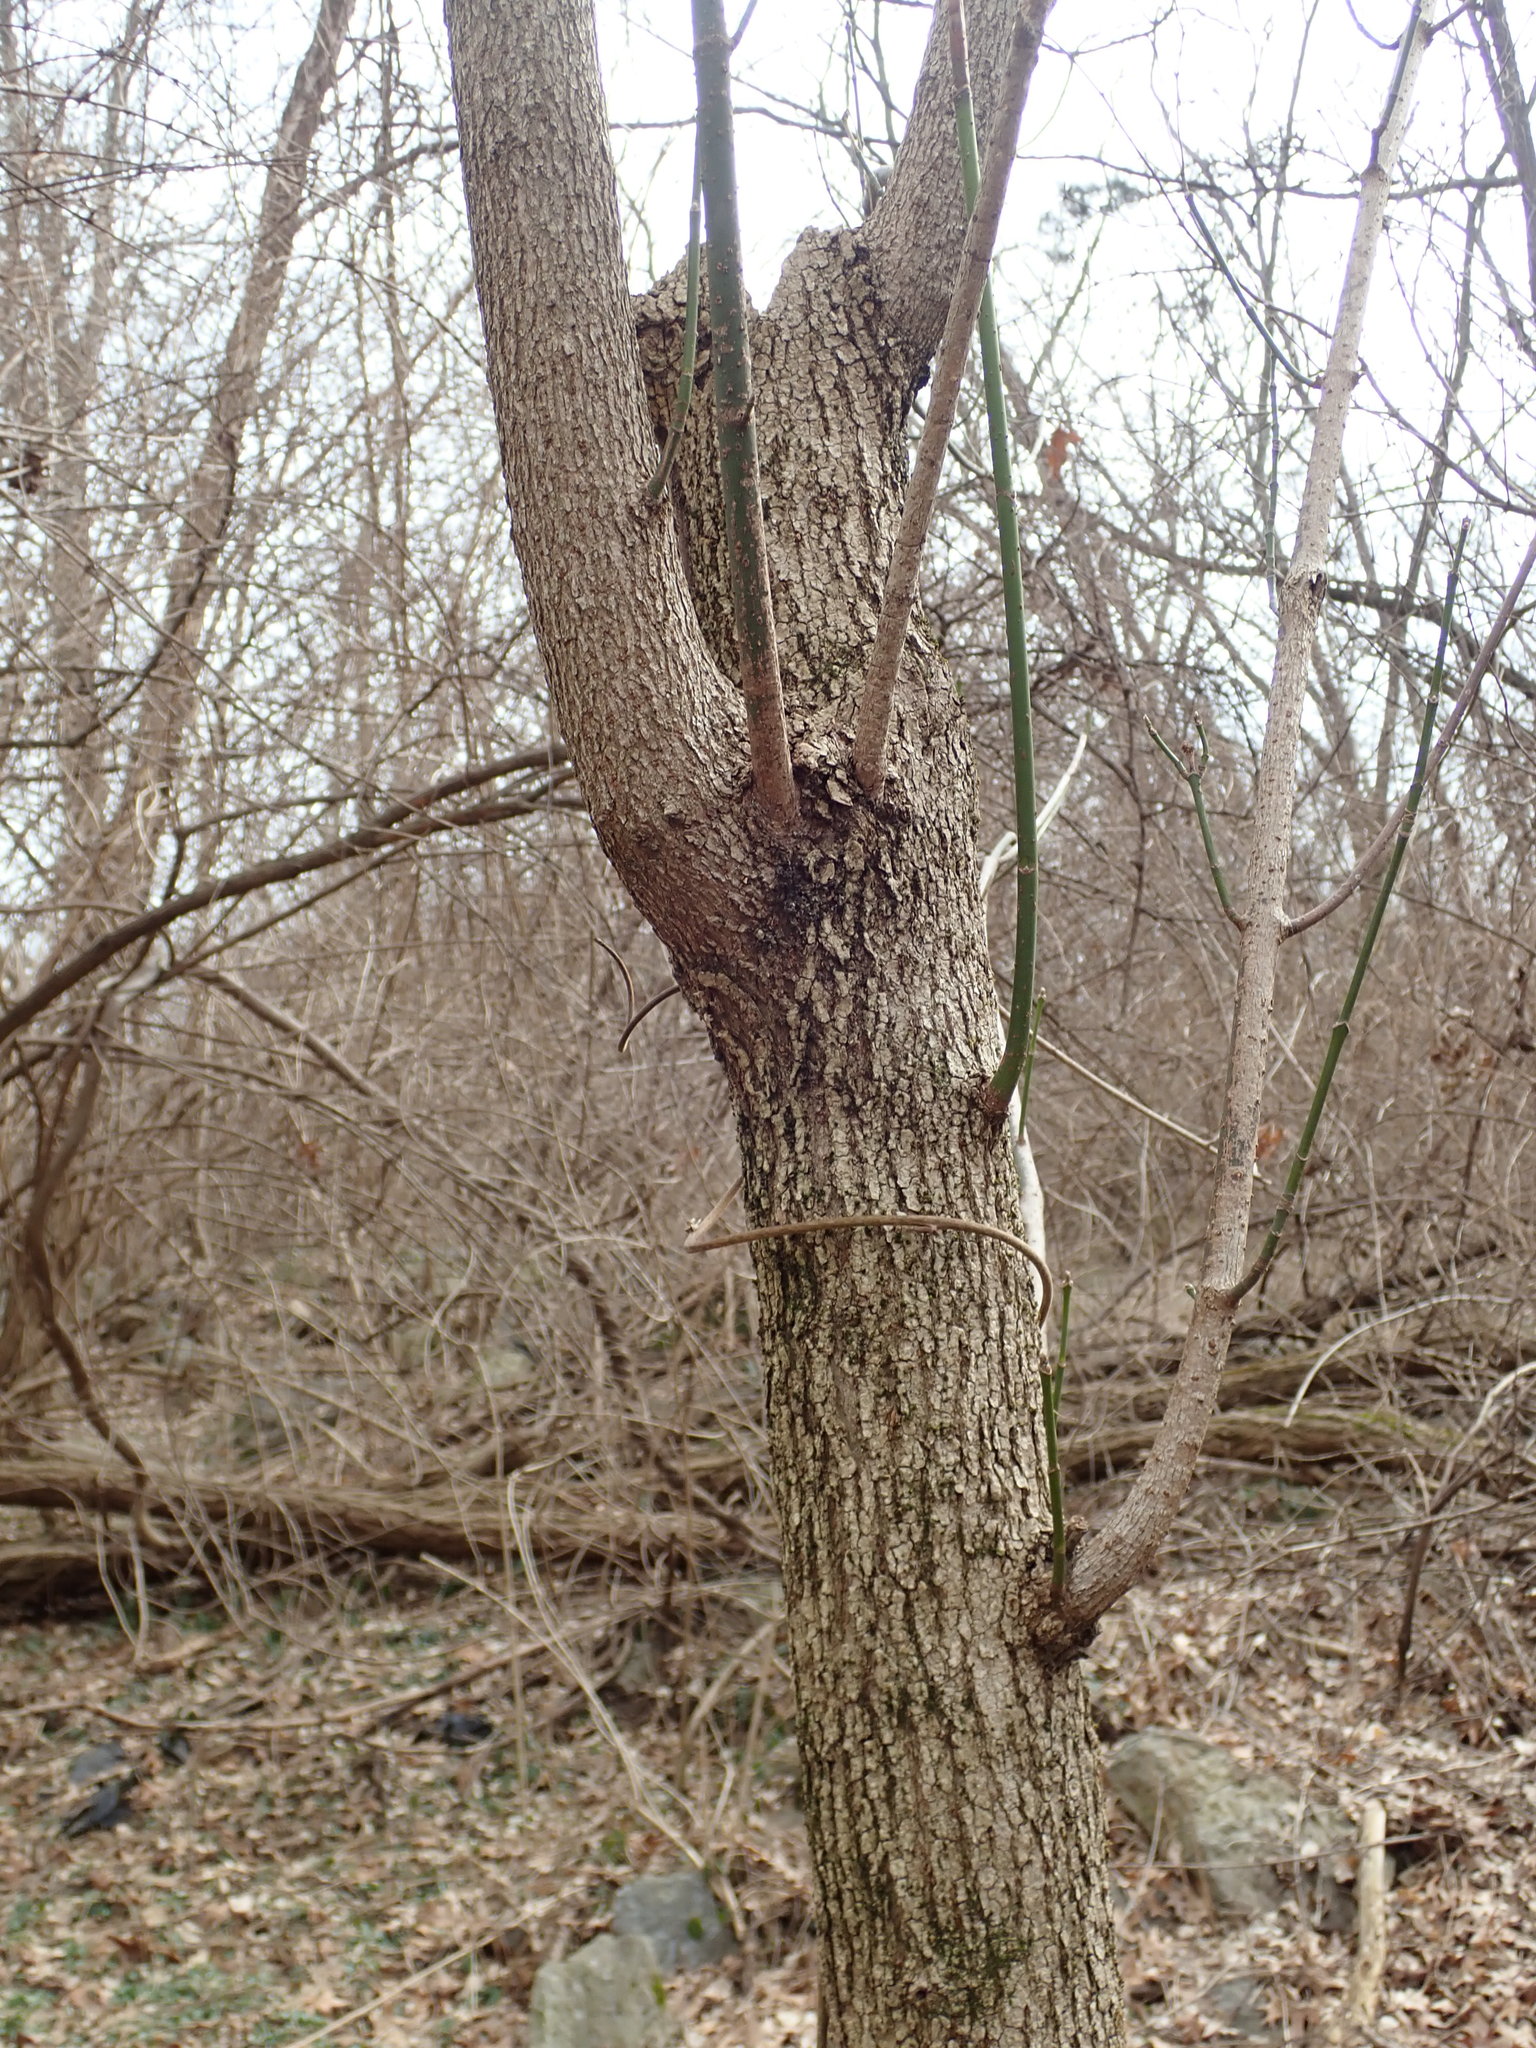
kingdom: Plantae
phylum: Tracheophyta
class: Magnoliopsida
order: Sapindales
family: Sapindaceae
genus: Acer
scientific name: Acer negundo
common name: Ashleaf maple
